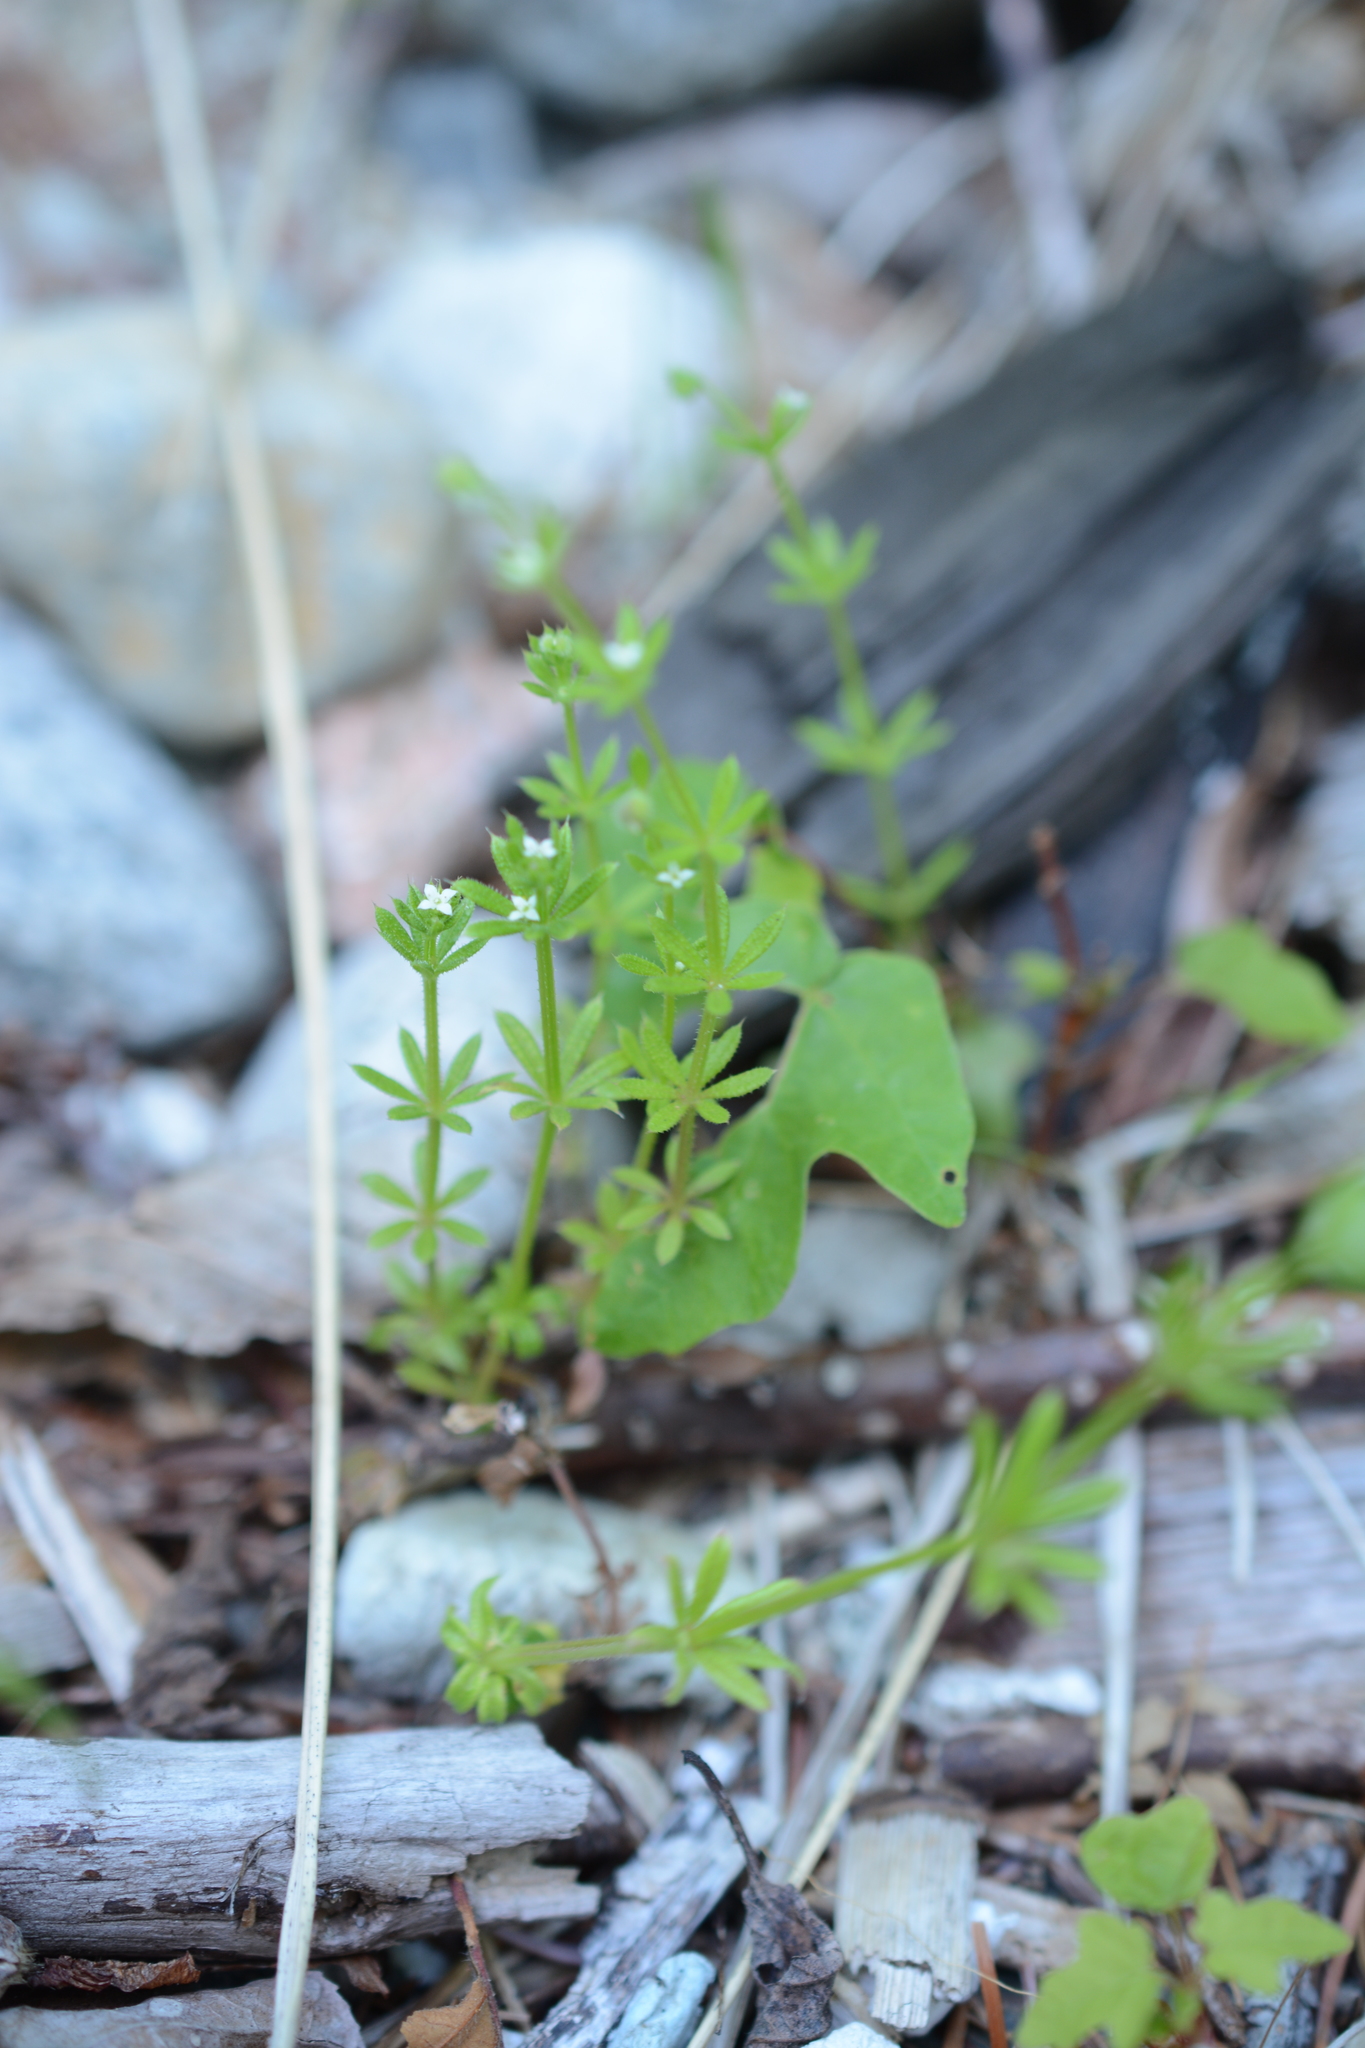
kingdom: Plantae
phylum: Tracheophyta
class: Magnoliopsida
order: Gentianales
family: Rubiaceae
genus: Galium
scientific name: Galium aparine
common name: Cleavers
